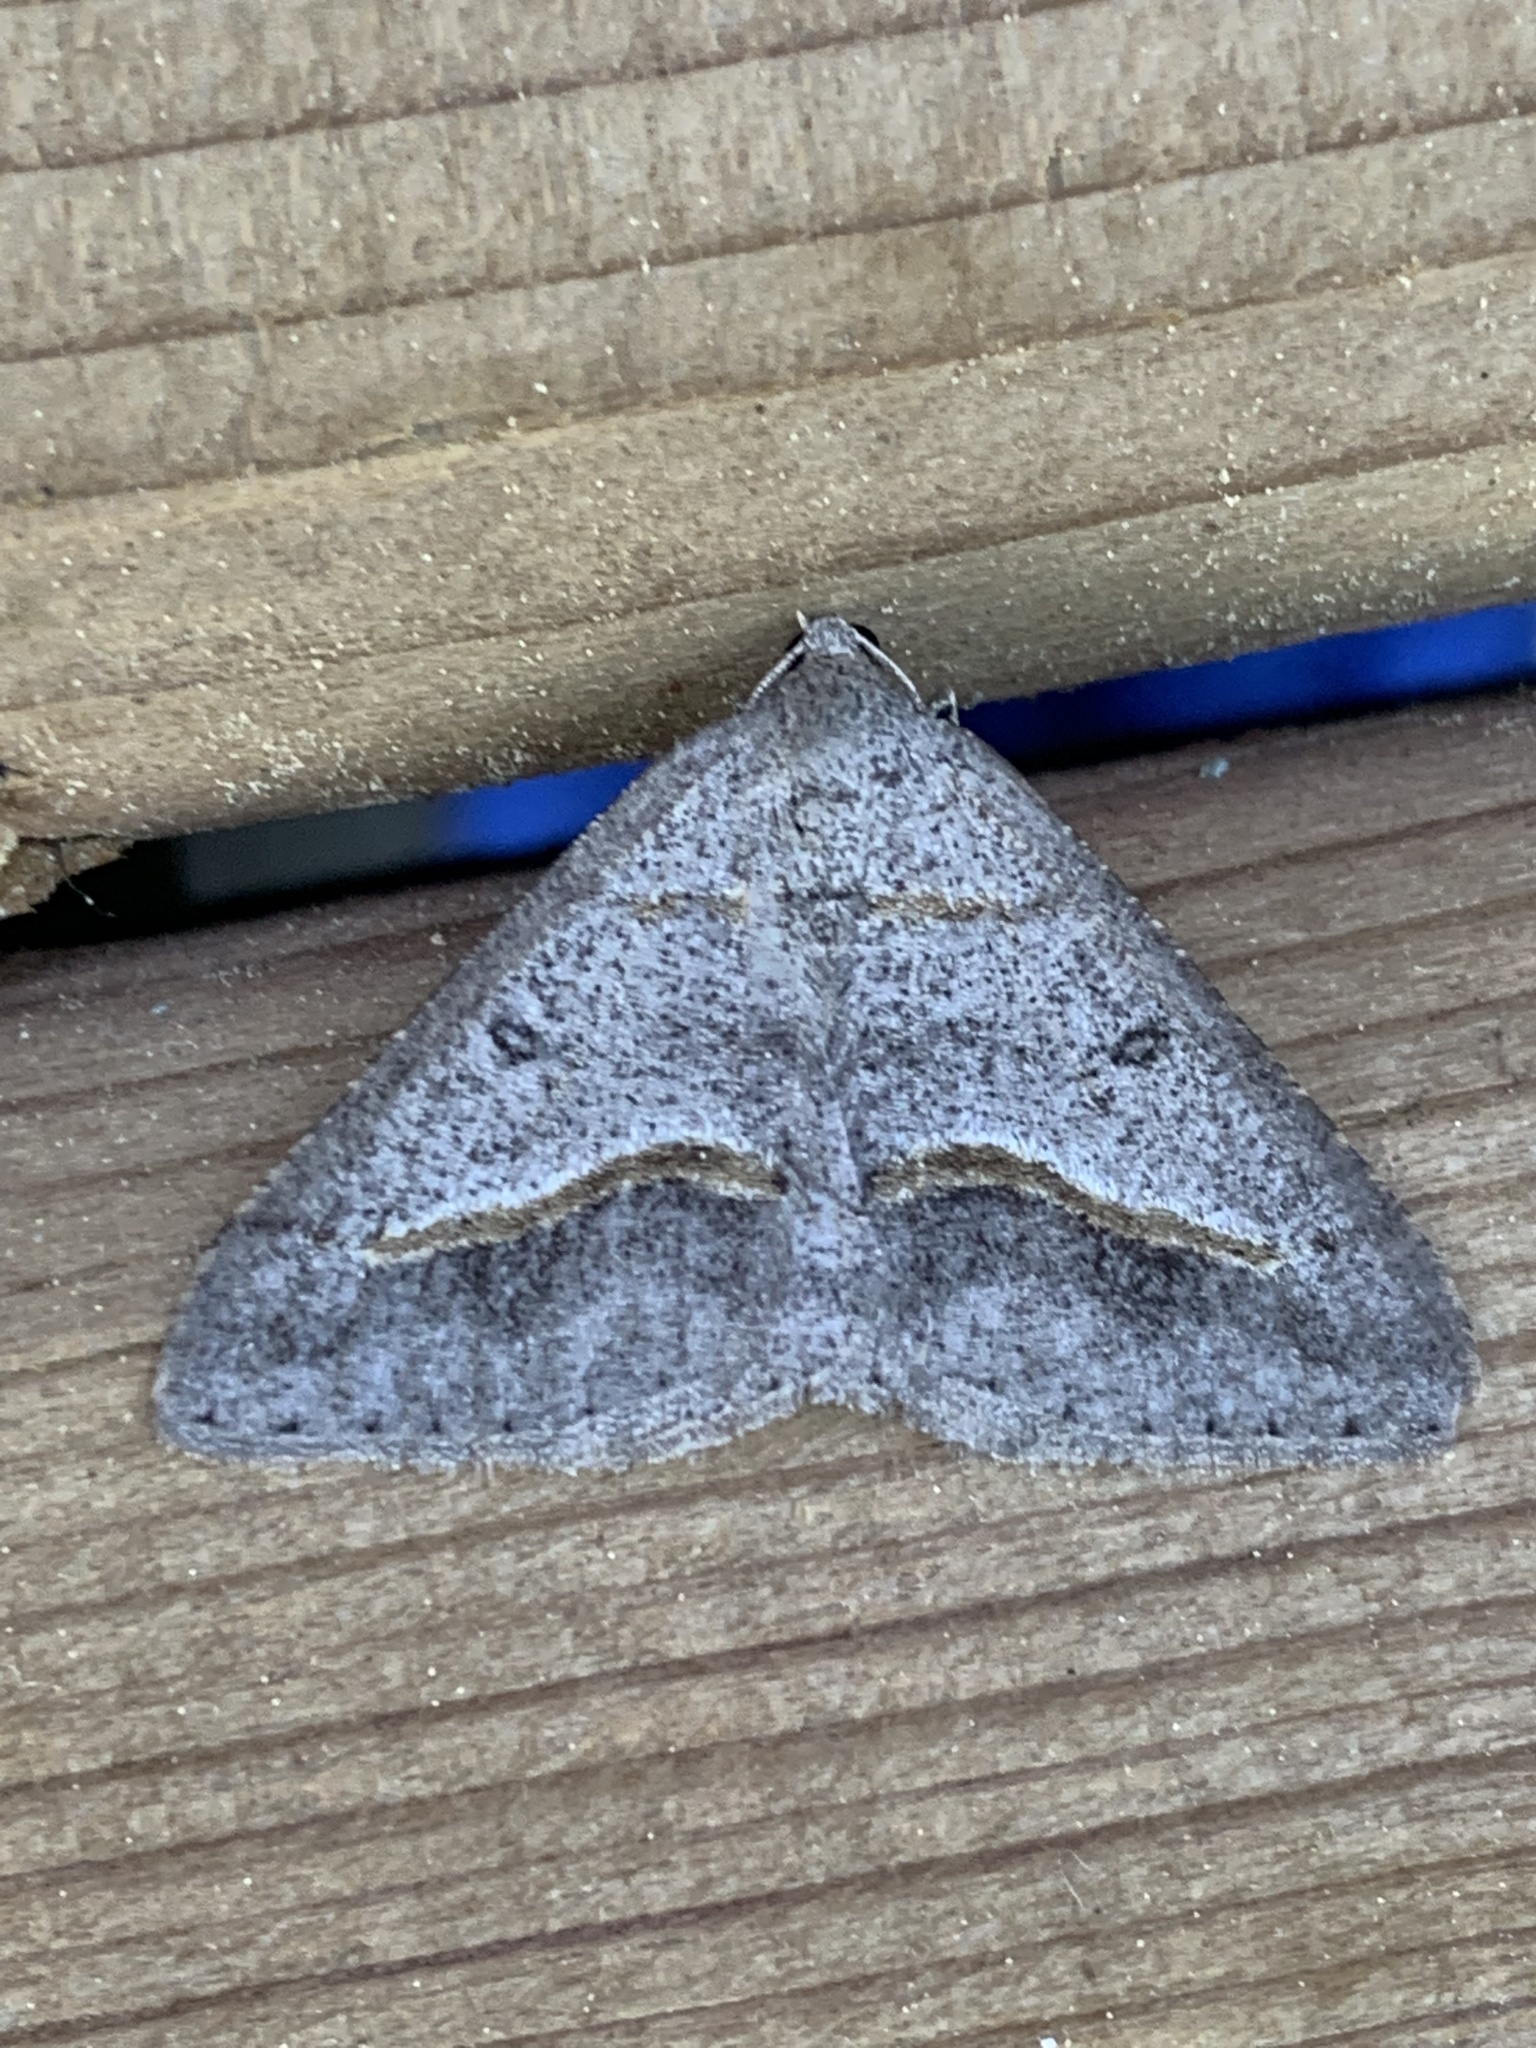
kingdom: Animalia
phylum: Arthropoda
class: Insecta
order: Lepidoptera
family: Geometridae
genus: Digrammia
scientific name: Digrammia neptaria
